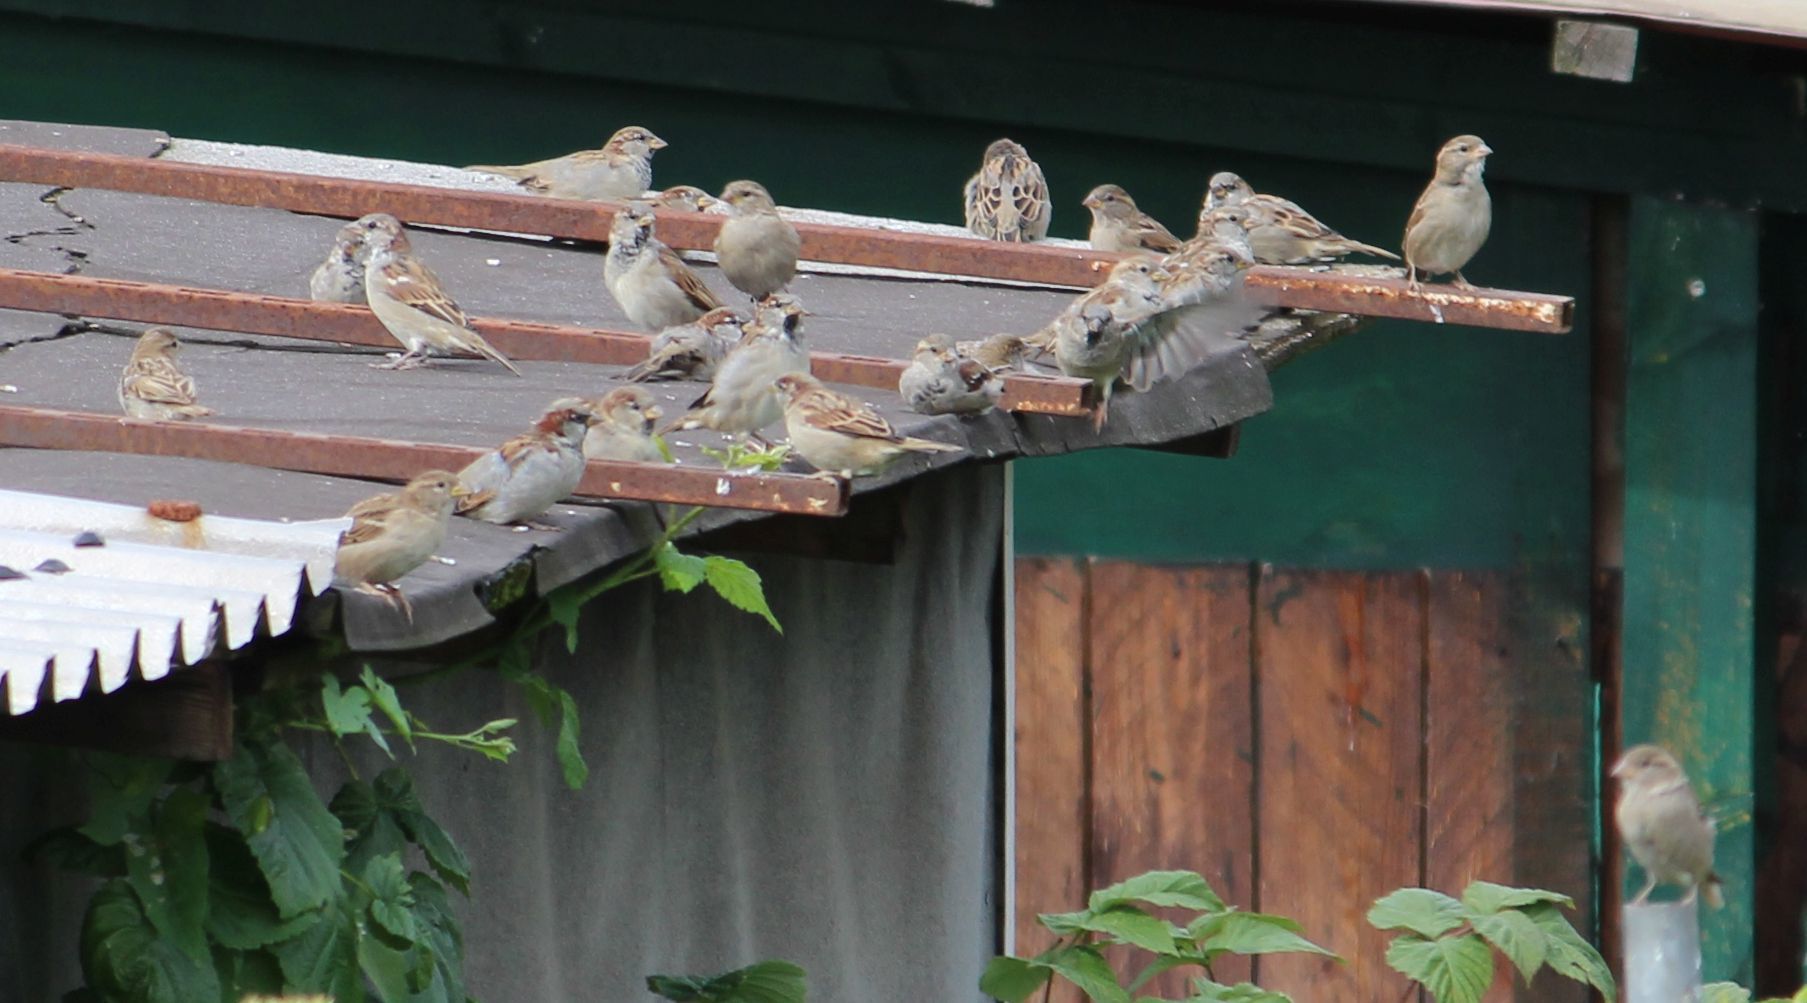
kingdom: Animalia
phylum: Chordata
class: Aves
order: Passeriformes
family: Passeridae
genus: Passer
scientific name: Passer domesticus
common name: House sparrow
